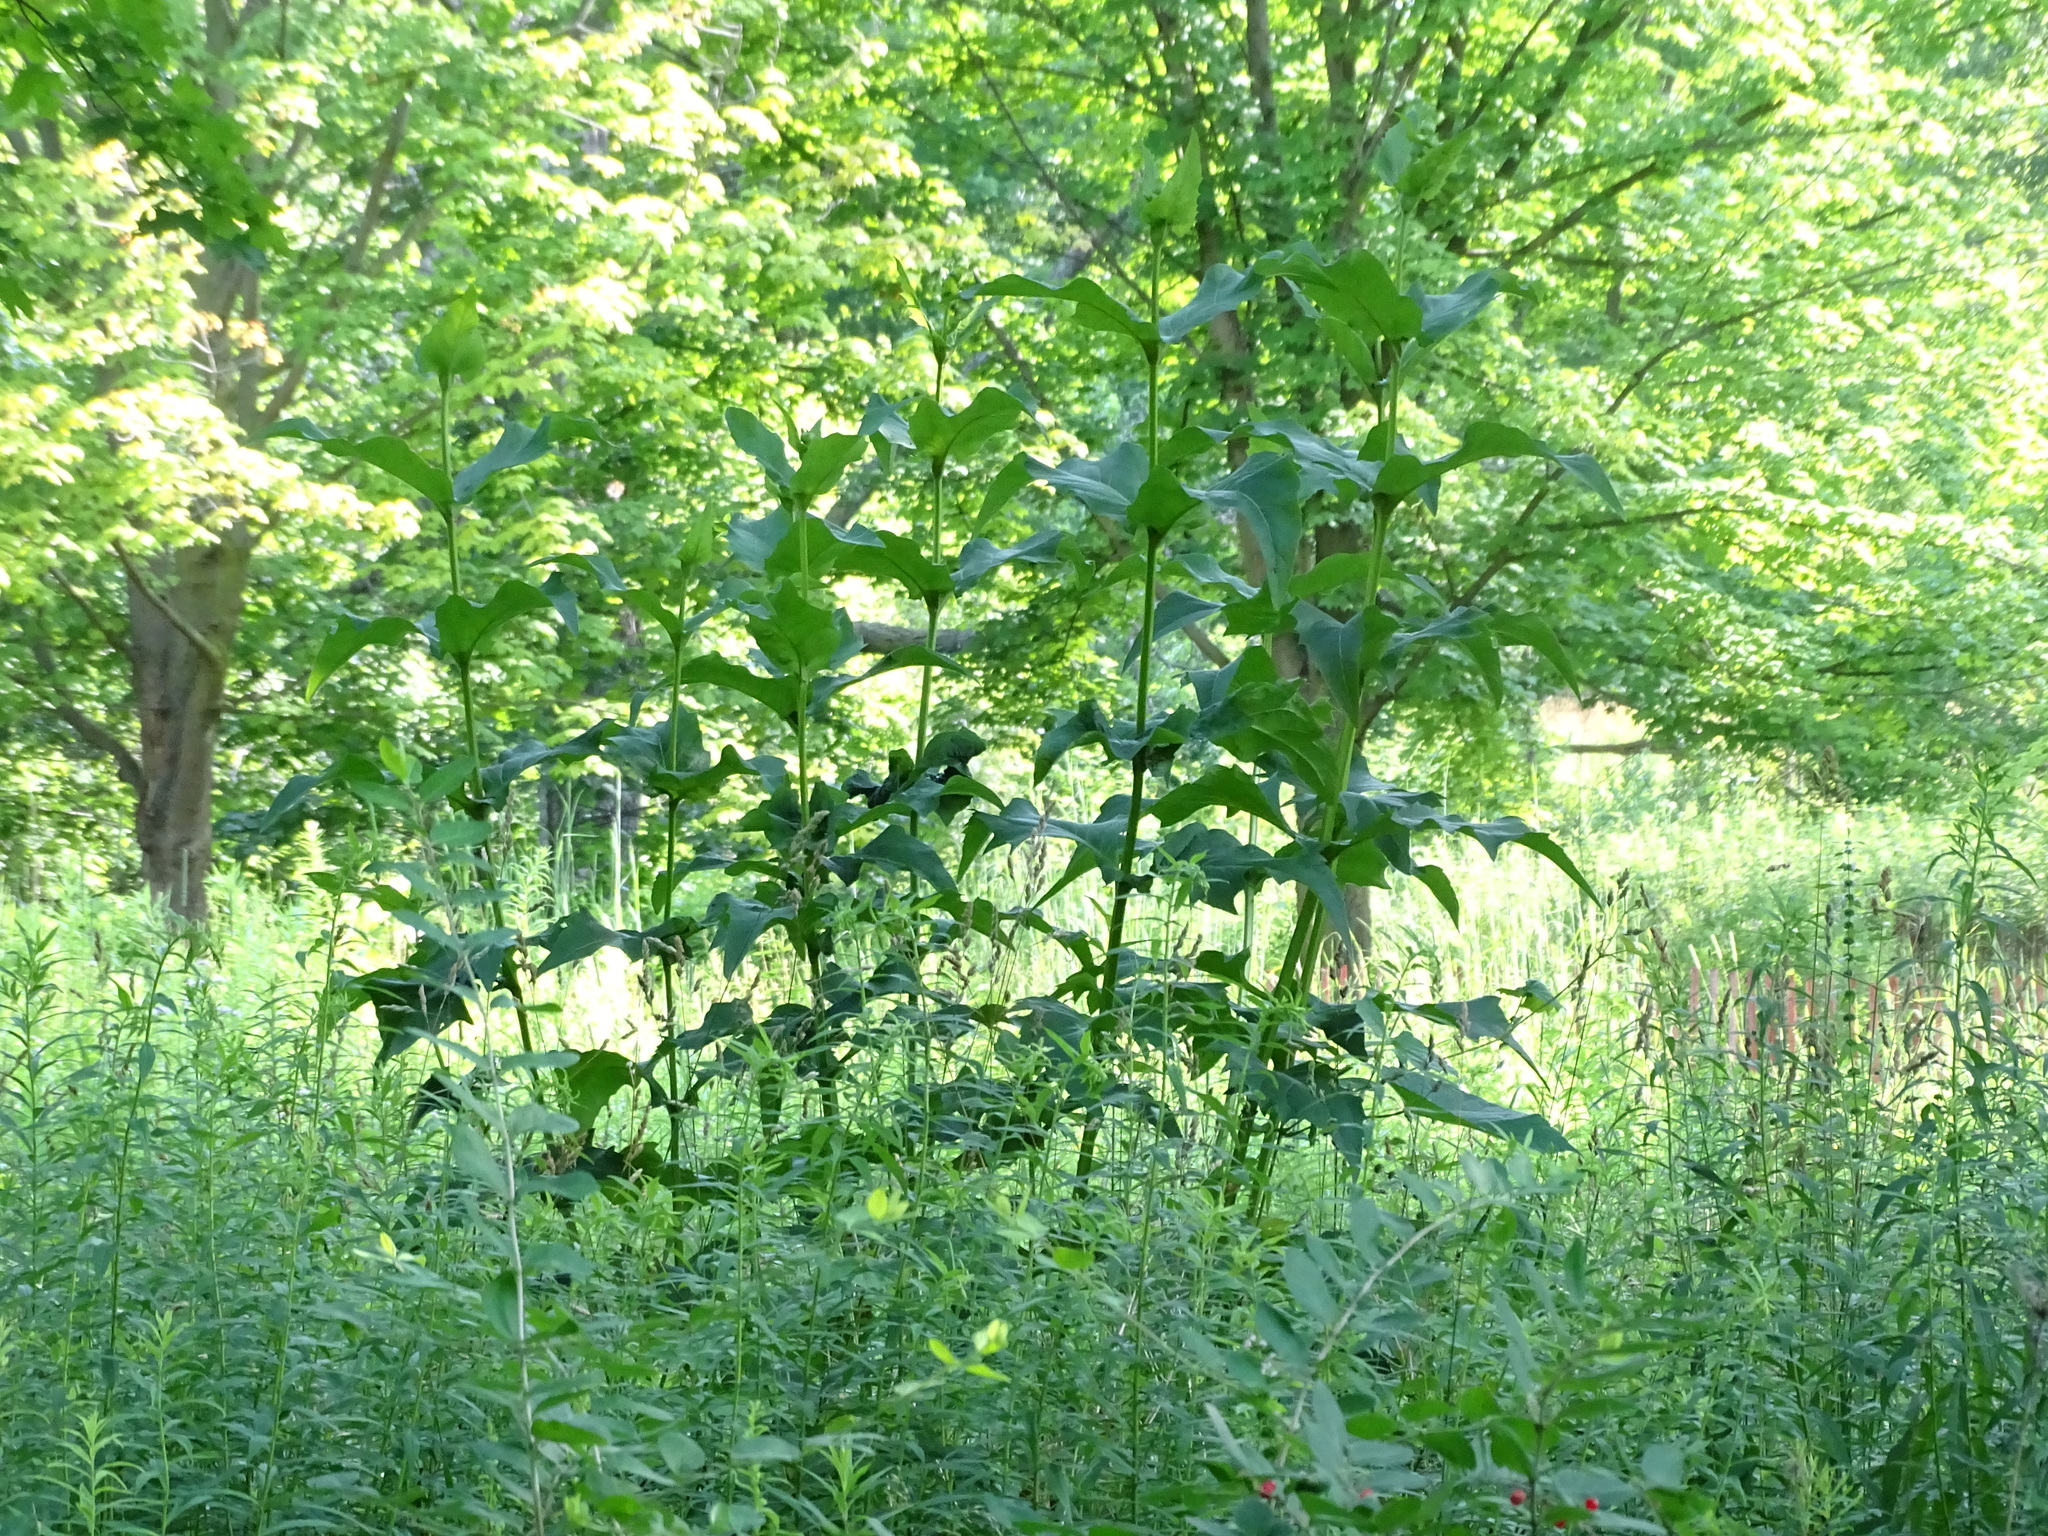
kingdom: Plantae
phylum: Tracheophyta
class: Magnoliopsida
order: Asterales
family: Asteraceae
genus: Silphium
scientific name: Silphium perfoliatum
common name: Cup-plant
